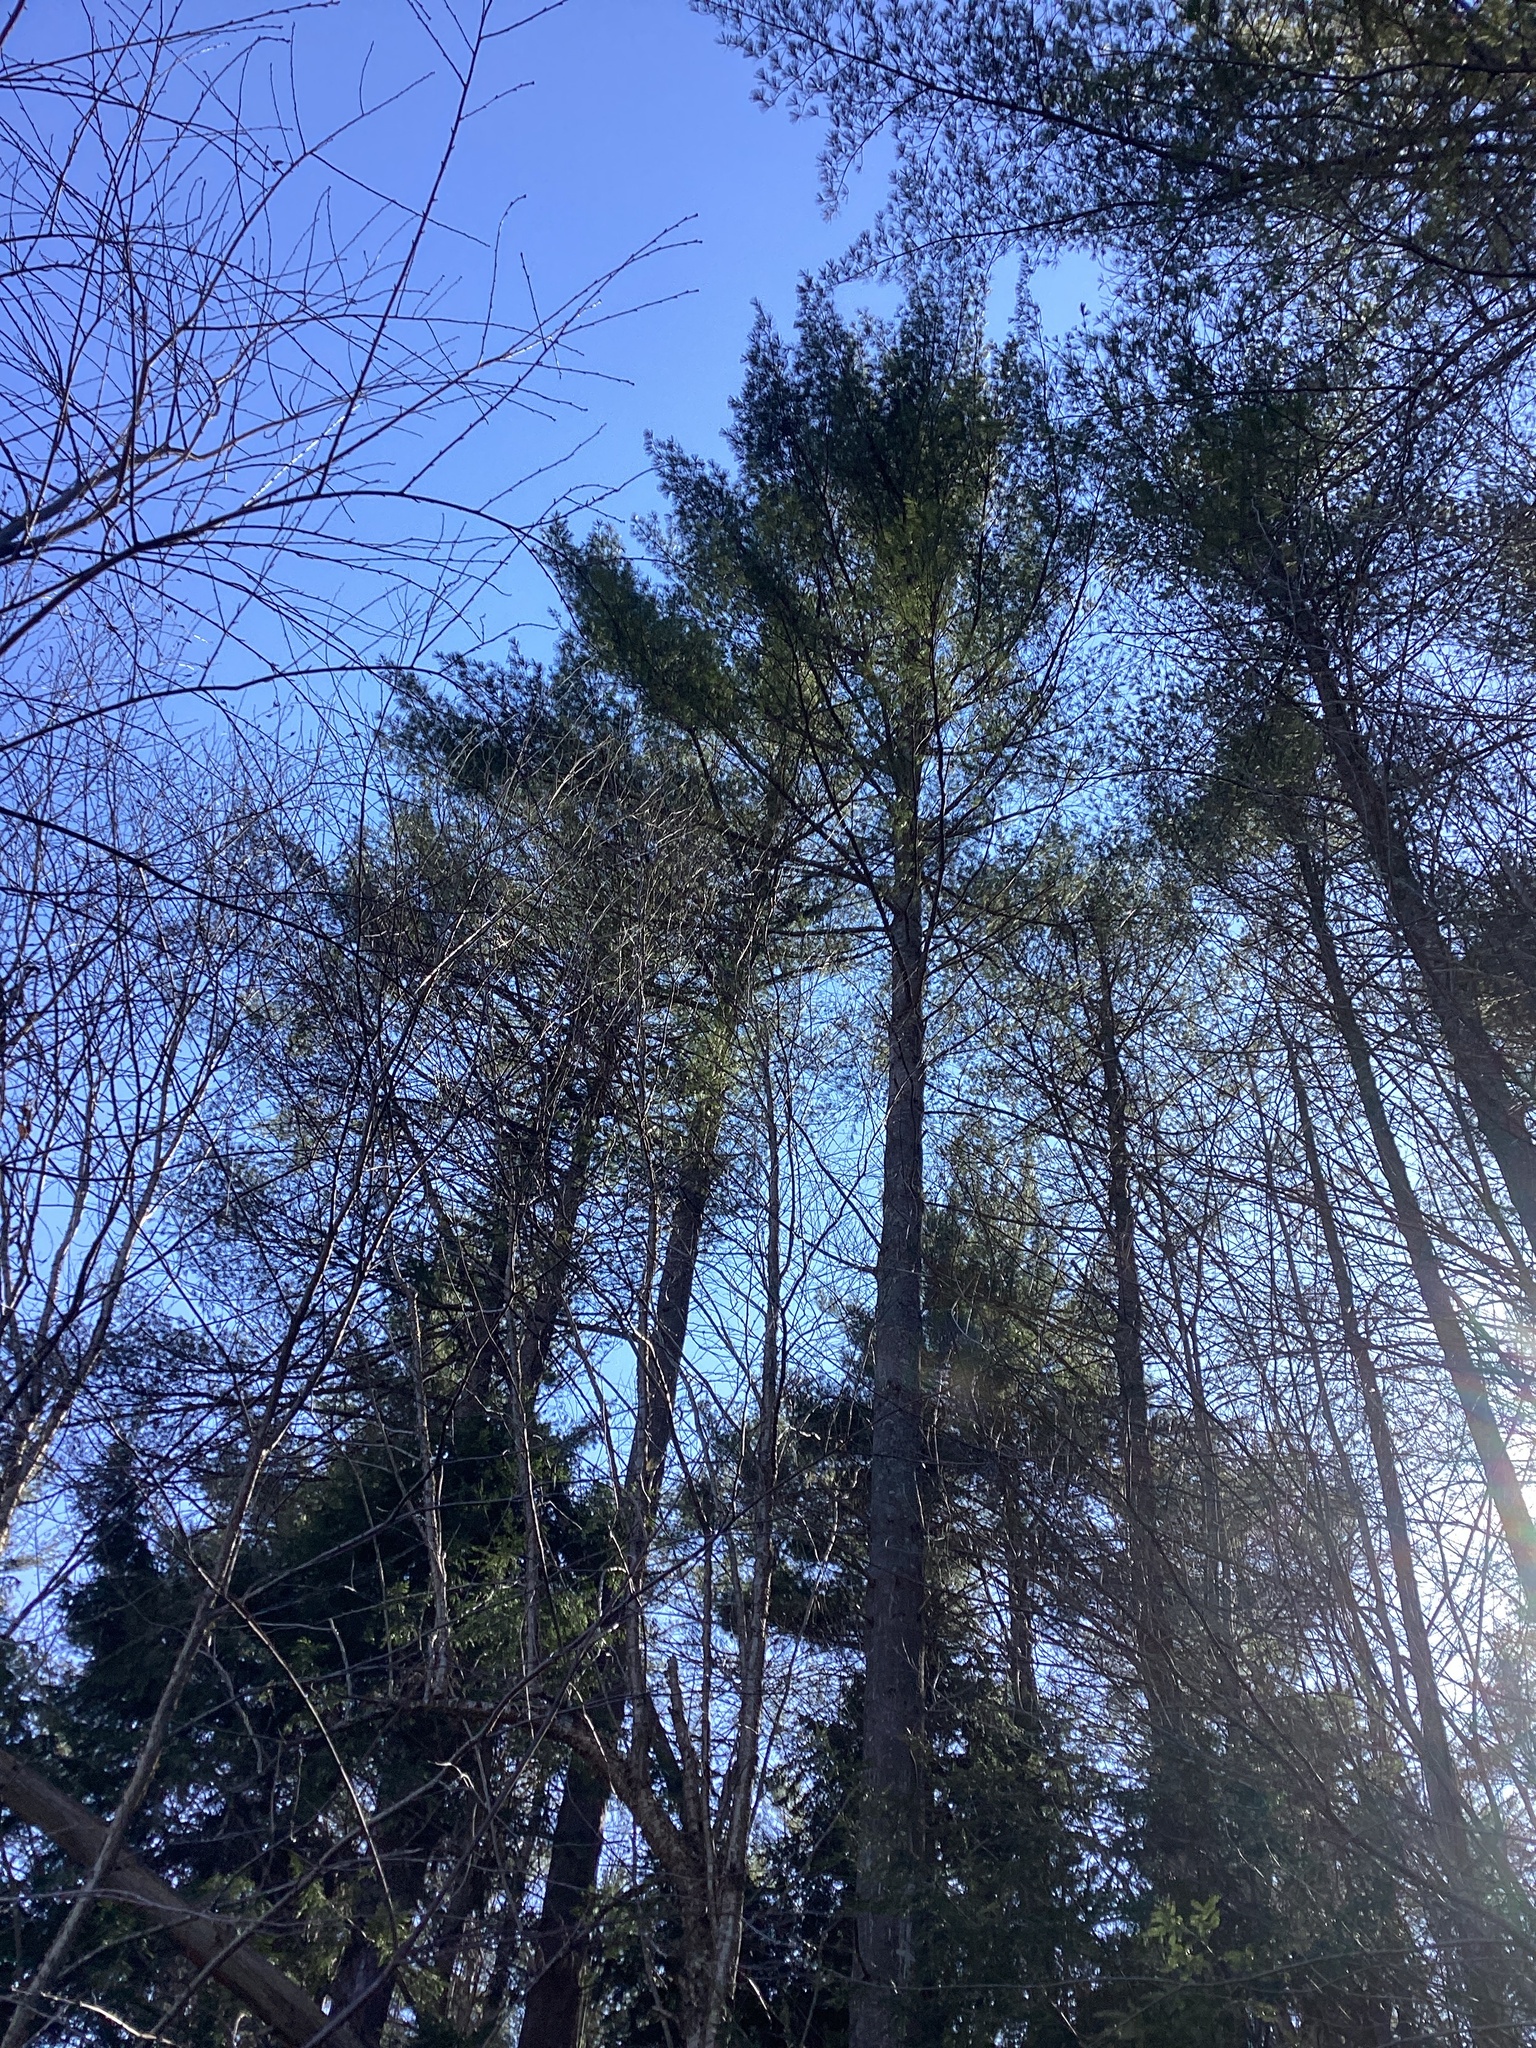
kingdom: Plantae
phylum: Tracheophyta
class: Pinopsida
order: Pinales
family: Pinaceae
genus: Pinus
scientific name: Pinus strobus
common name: Weymouth pine
